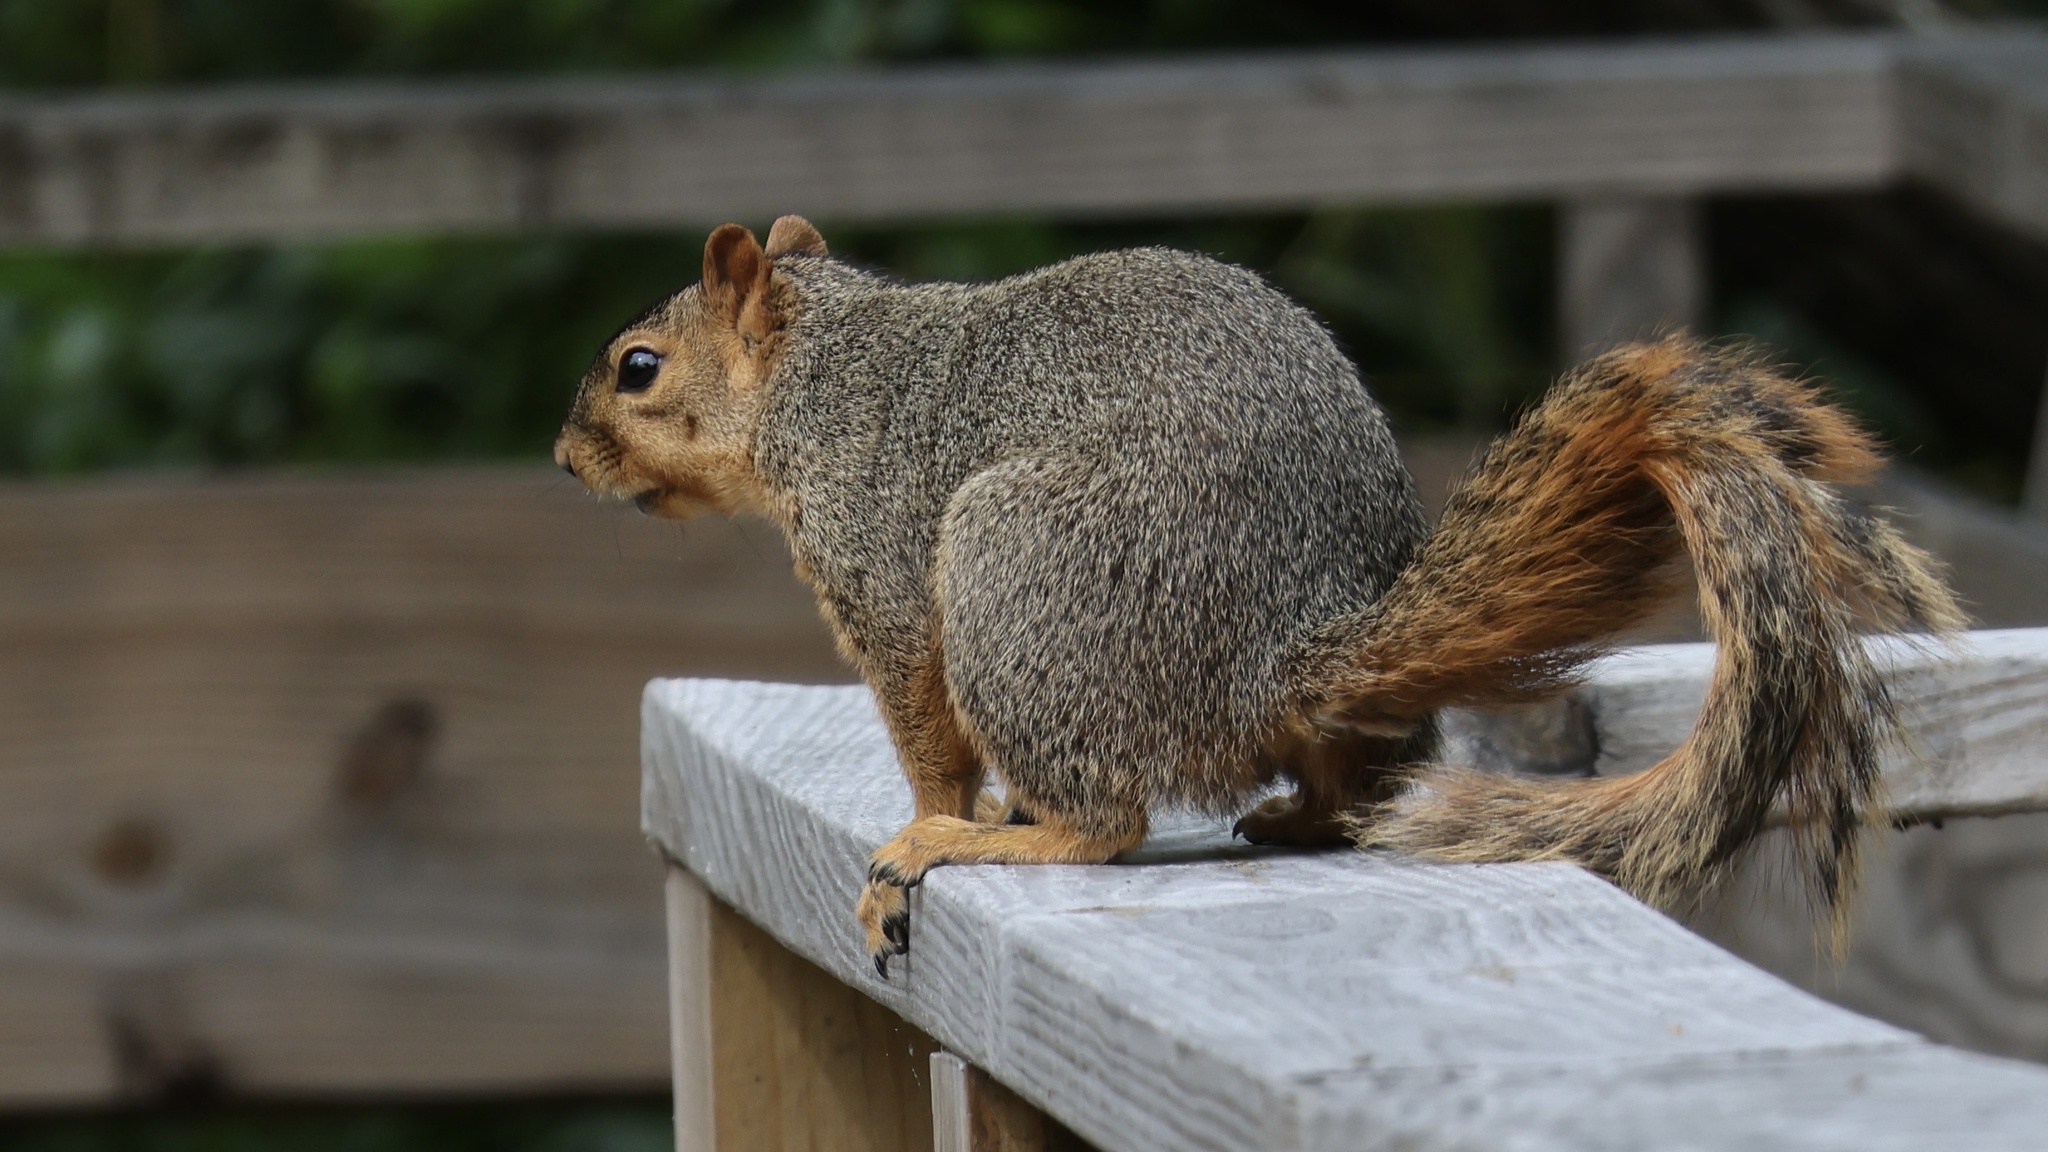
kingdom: Animalia
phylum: Chordata
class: Mammalia
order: Rodentia
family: Sciuridae
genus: Sciurus
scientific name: Sciurus niger
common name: Fox squirrel
